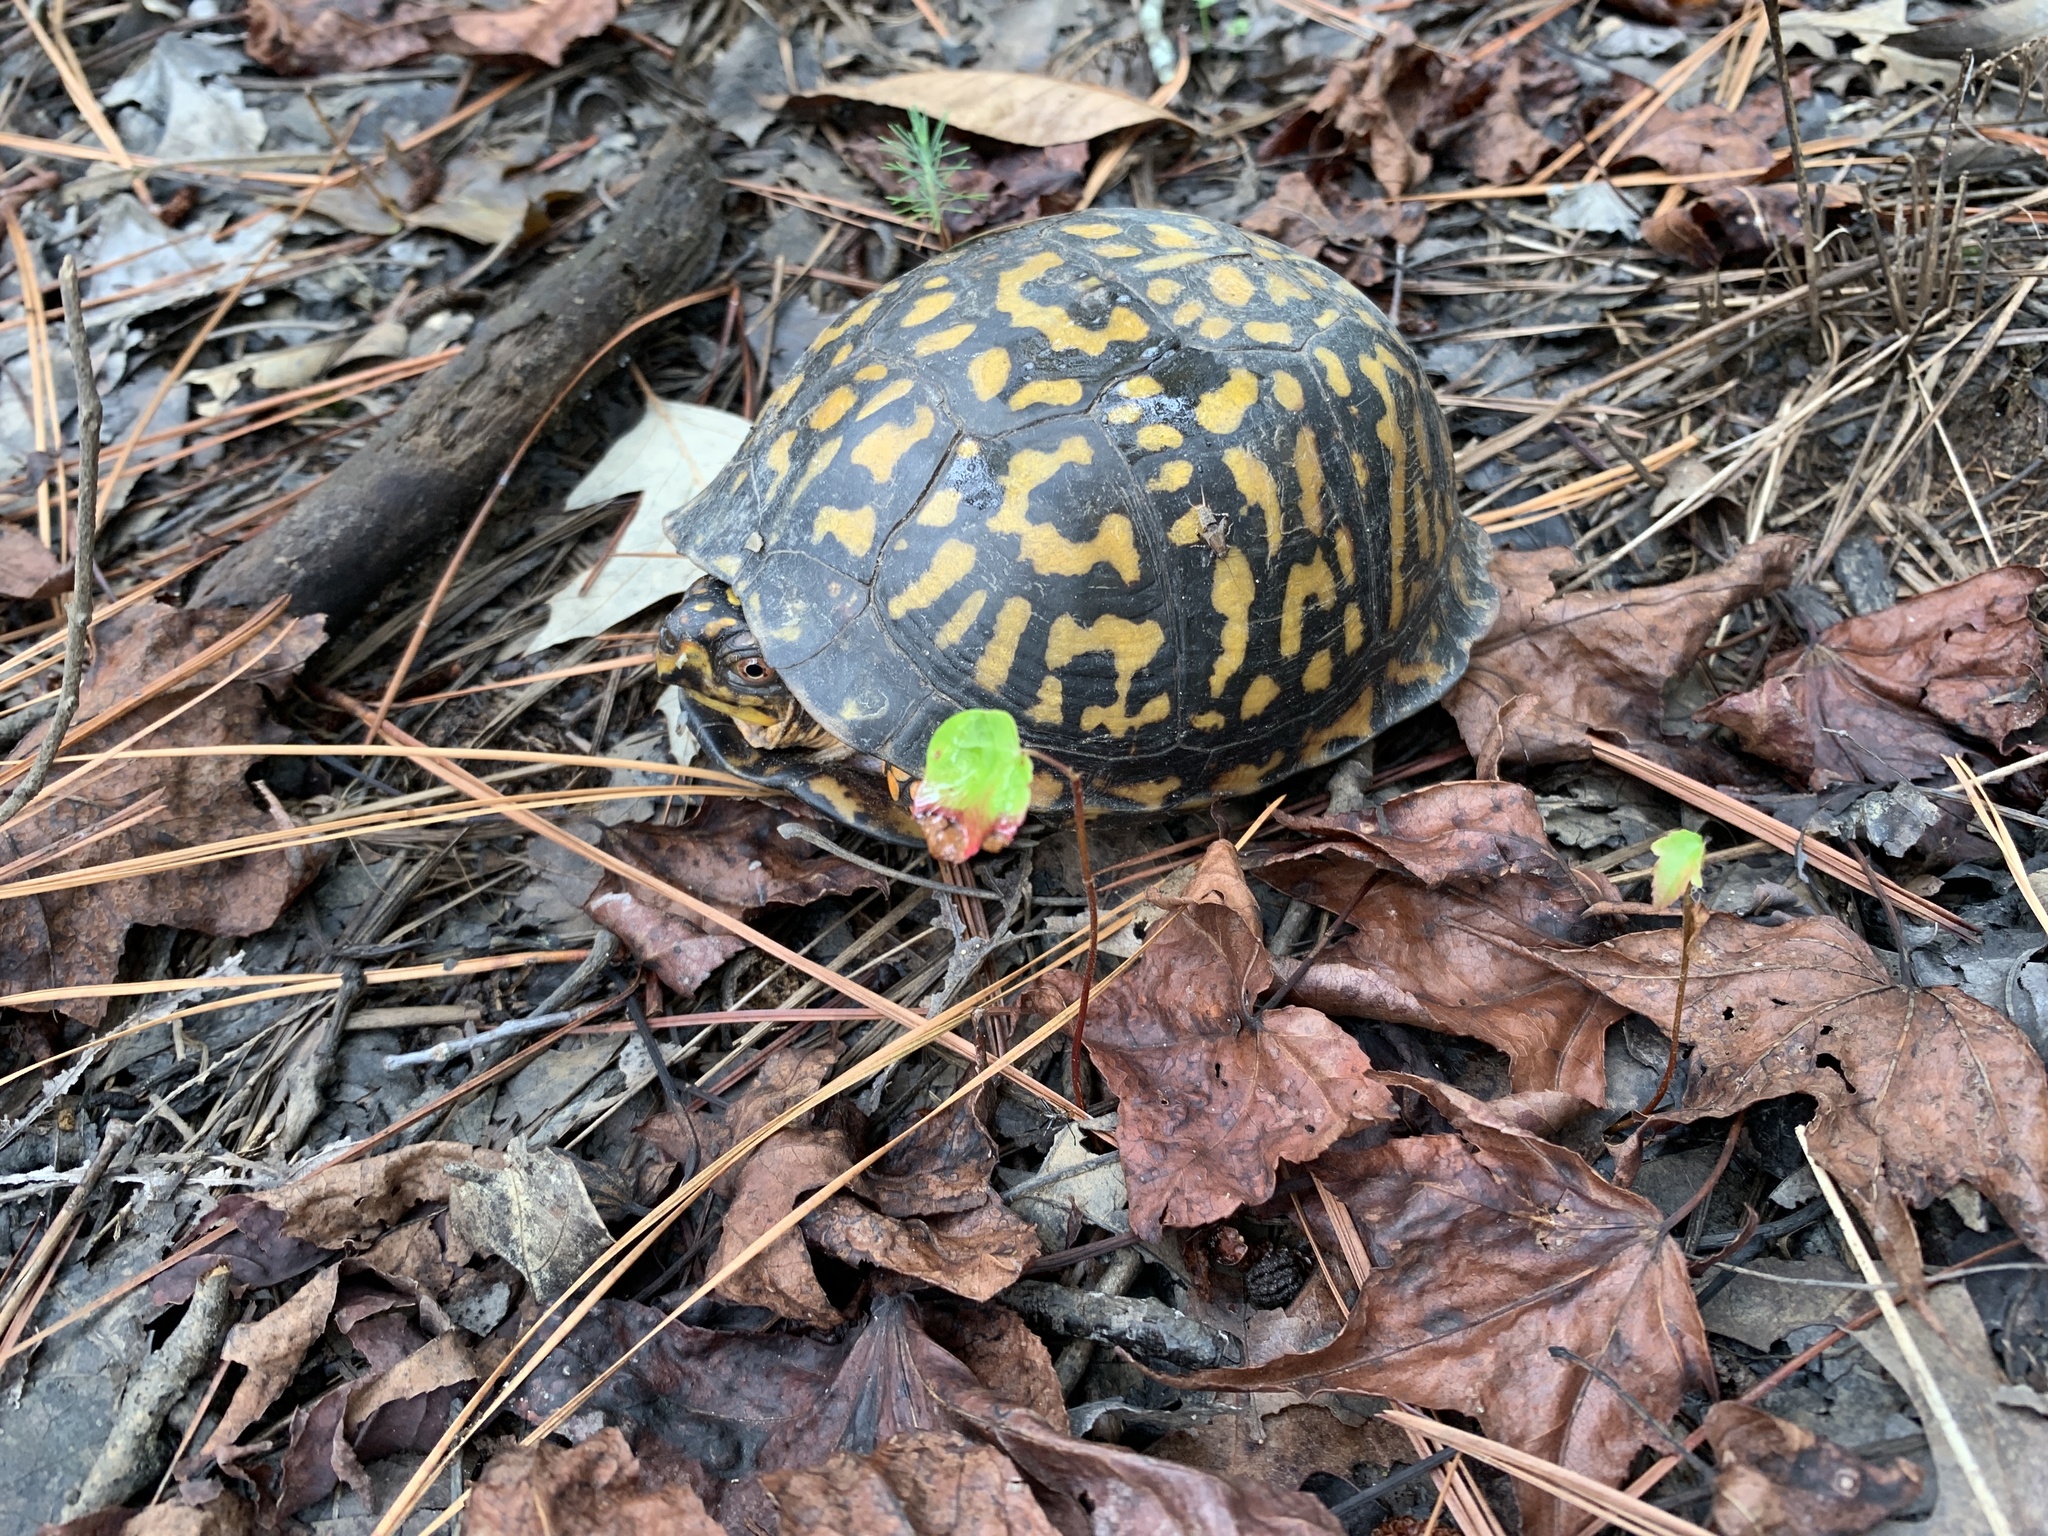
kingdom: Animalia
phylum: Chordata
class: Testudines
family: Emydidae
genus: Terrapene
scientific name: Terrapene carolina
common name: Common box turtle
